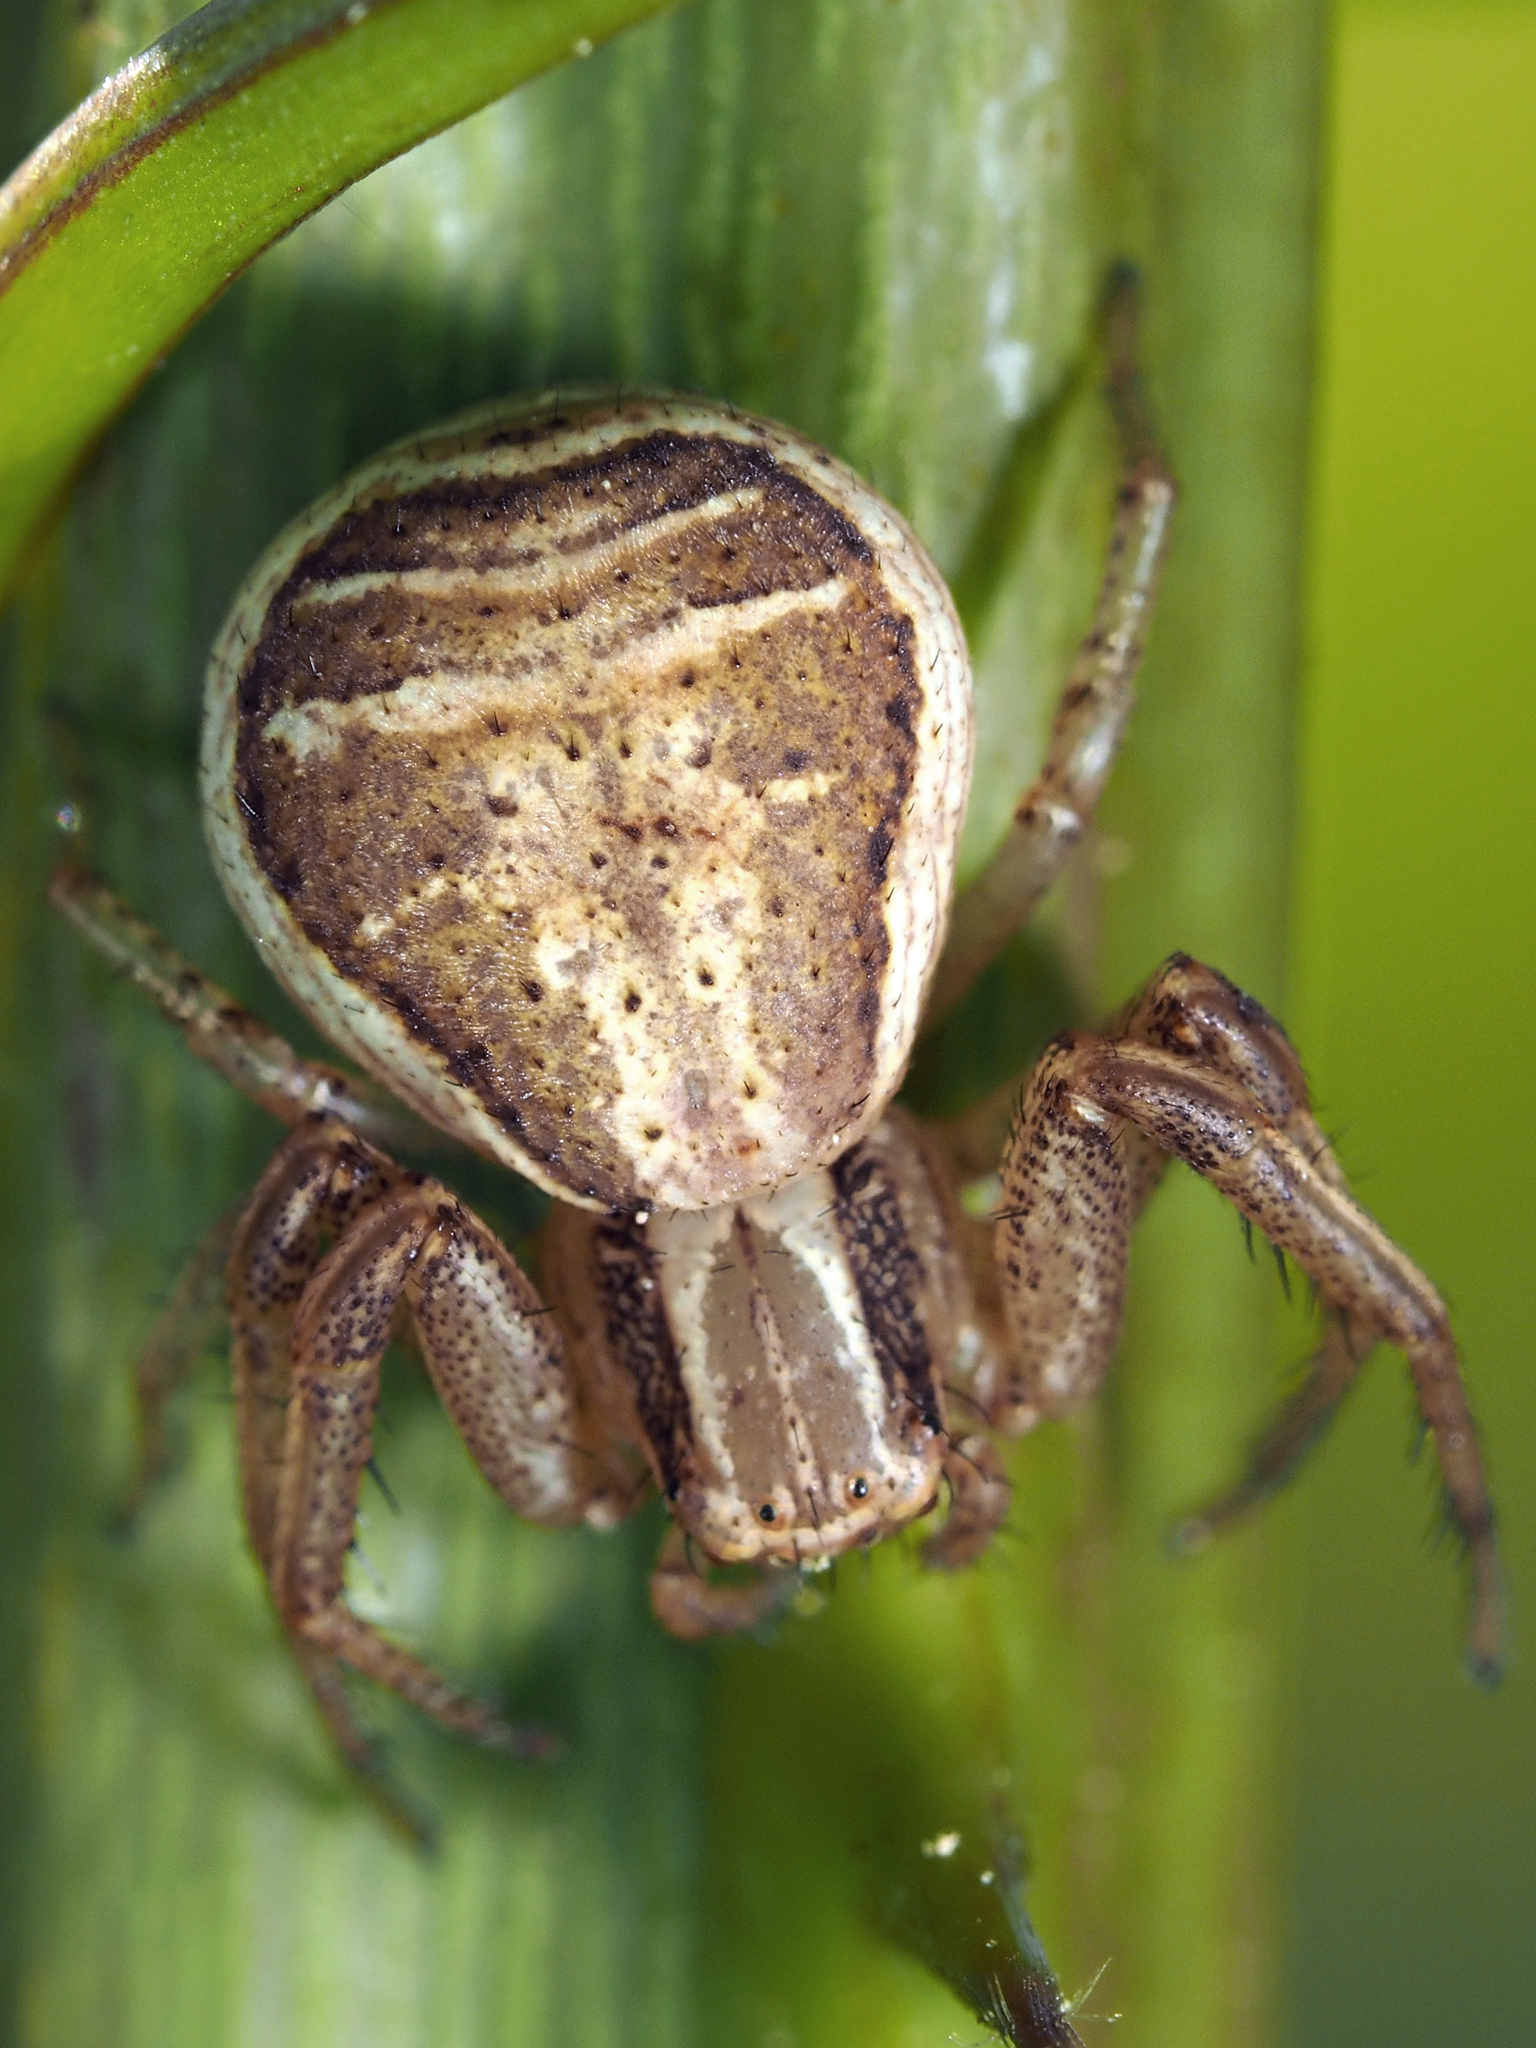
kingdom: Animalia
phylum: Arthropoda
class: Arachnida
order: Araneae
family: Thomisidae
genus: Xysticus
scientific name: Xysticus ulmi
